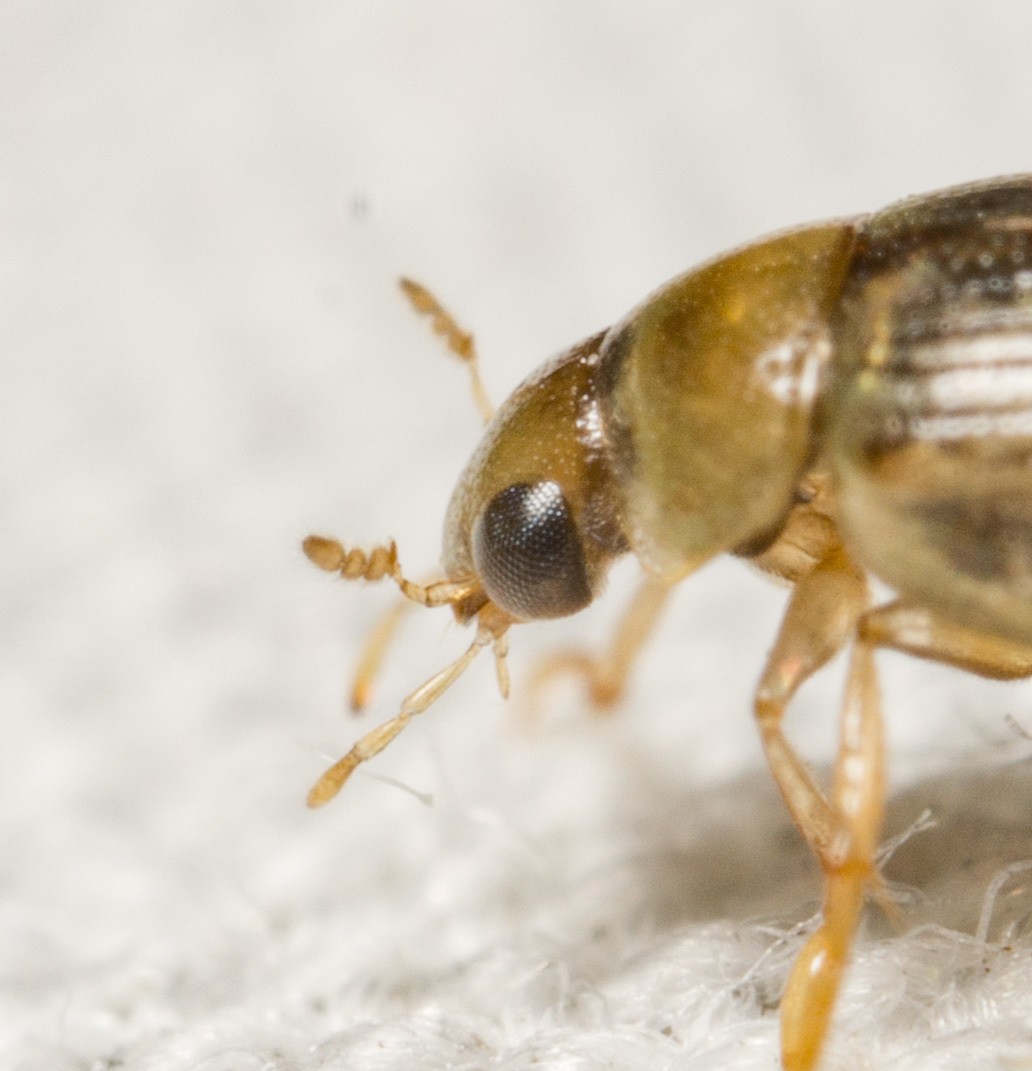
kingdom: Animalia
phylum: Arthropoda
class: Insecta
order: Coleoptera
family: Hydrophilidae
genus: Berosus
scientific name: Berosus peregrinus
